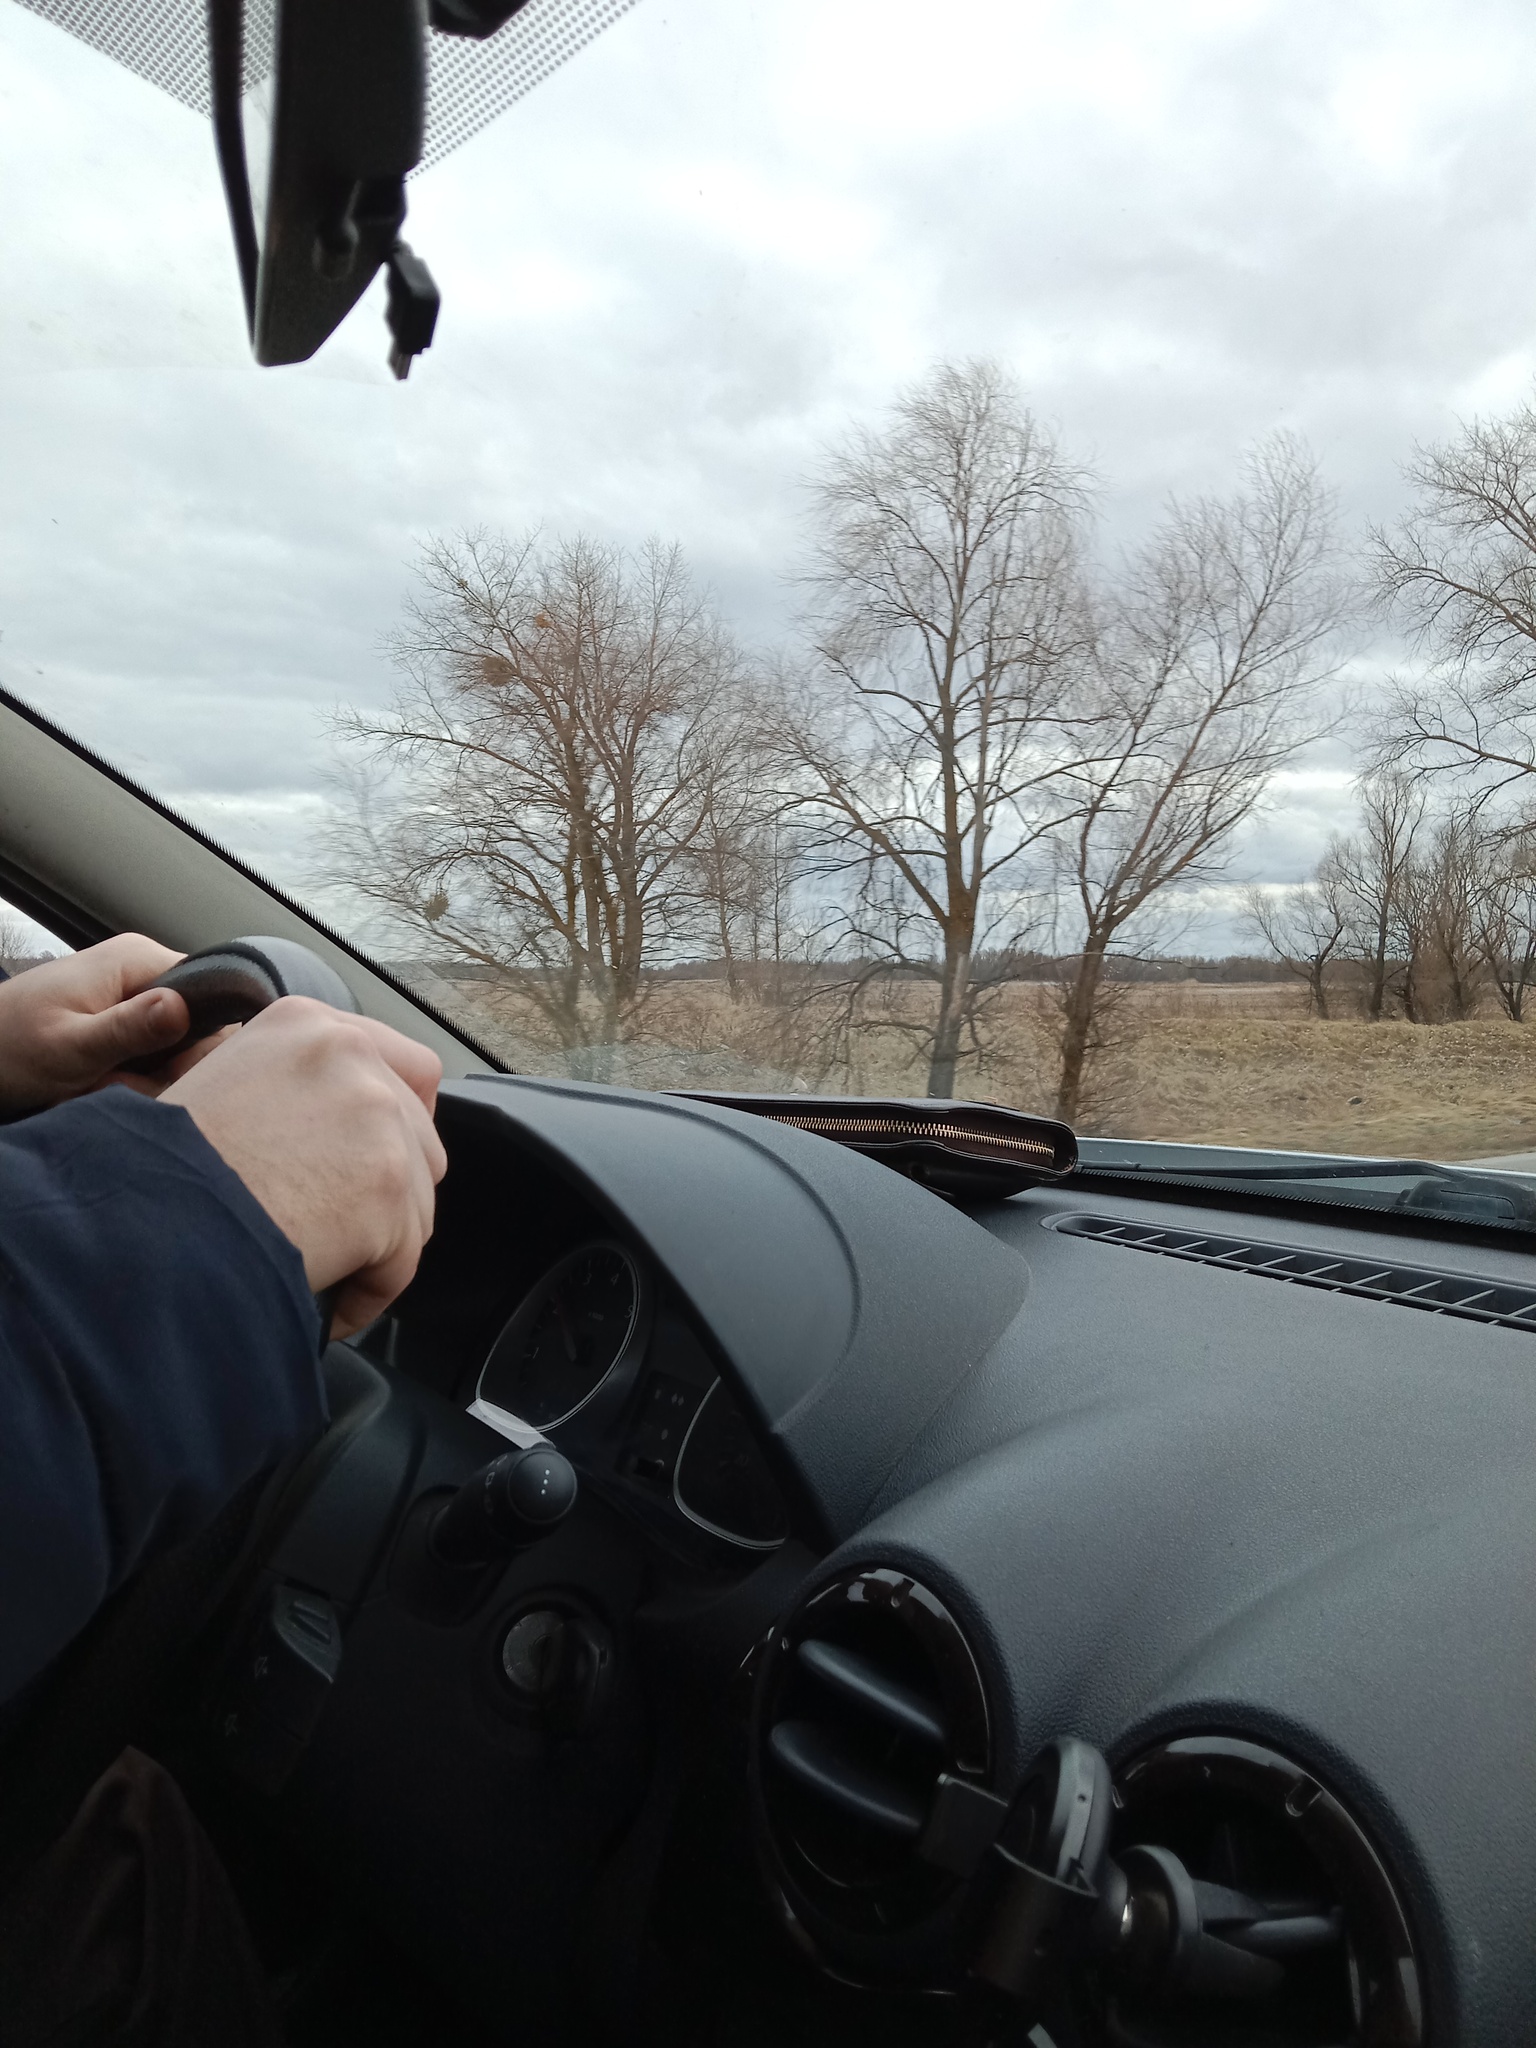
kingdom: Plantae
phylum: Tracheophyta
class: Magnoliopsida
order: Santalales
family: Viscaceae
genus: Viscum
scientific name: Viscum album
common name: Mistletoe
